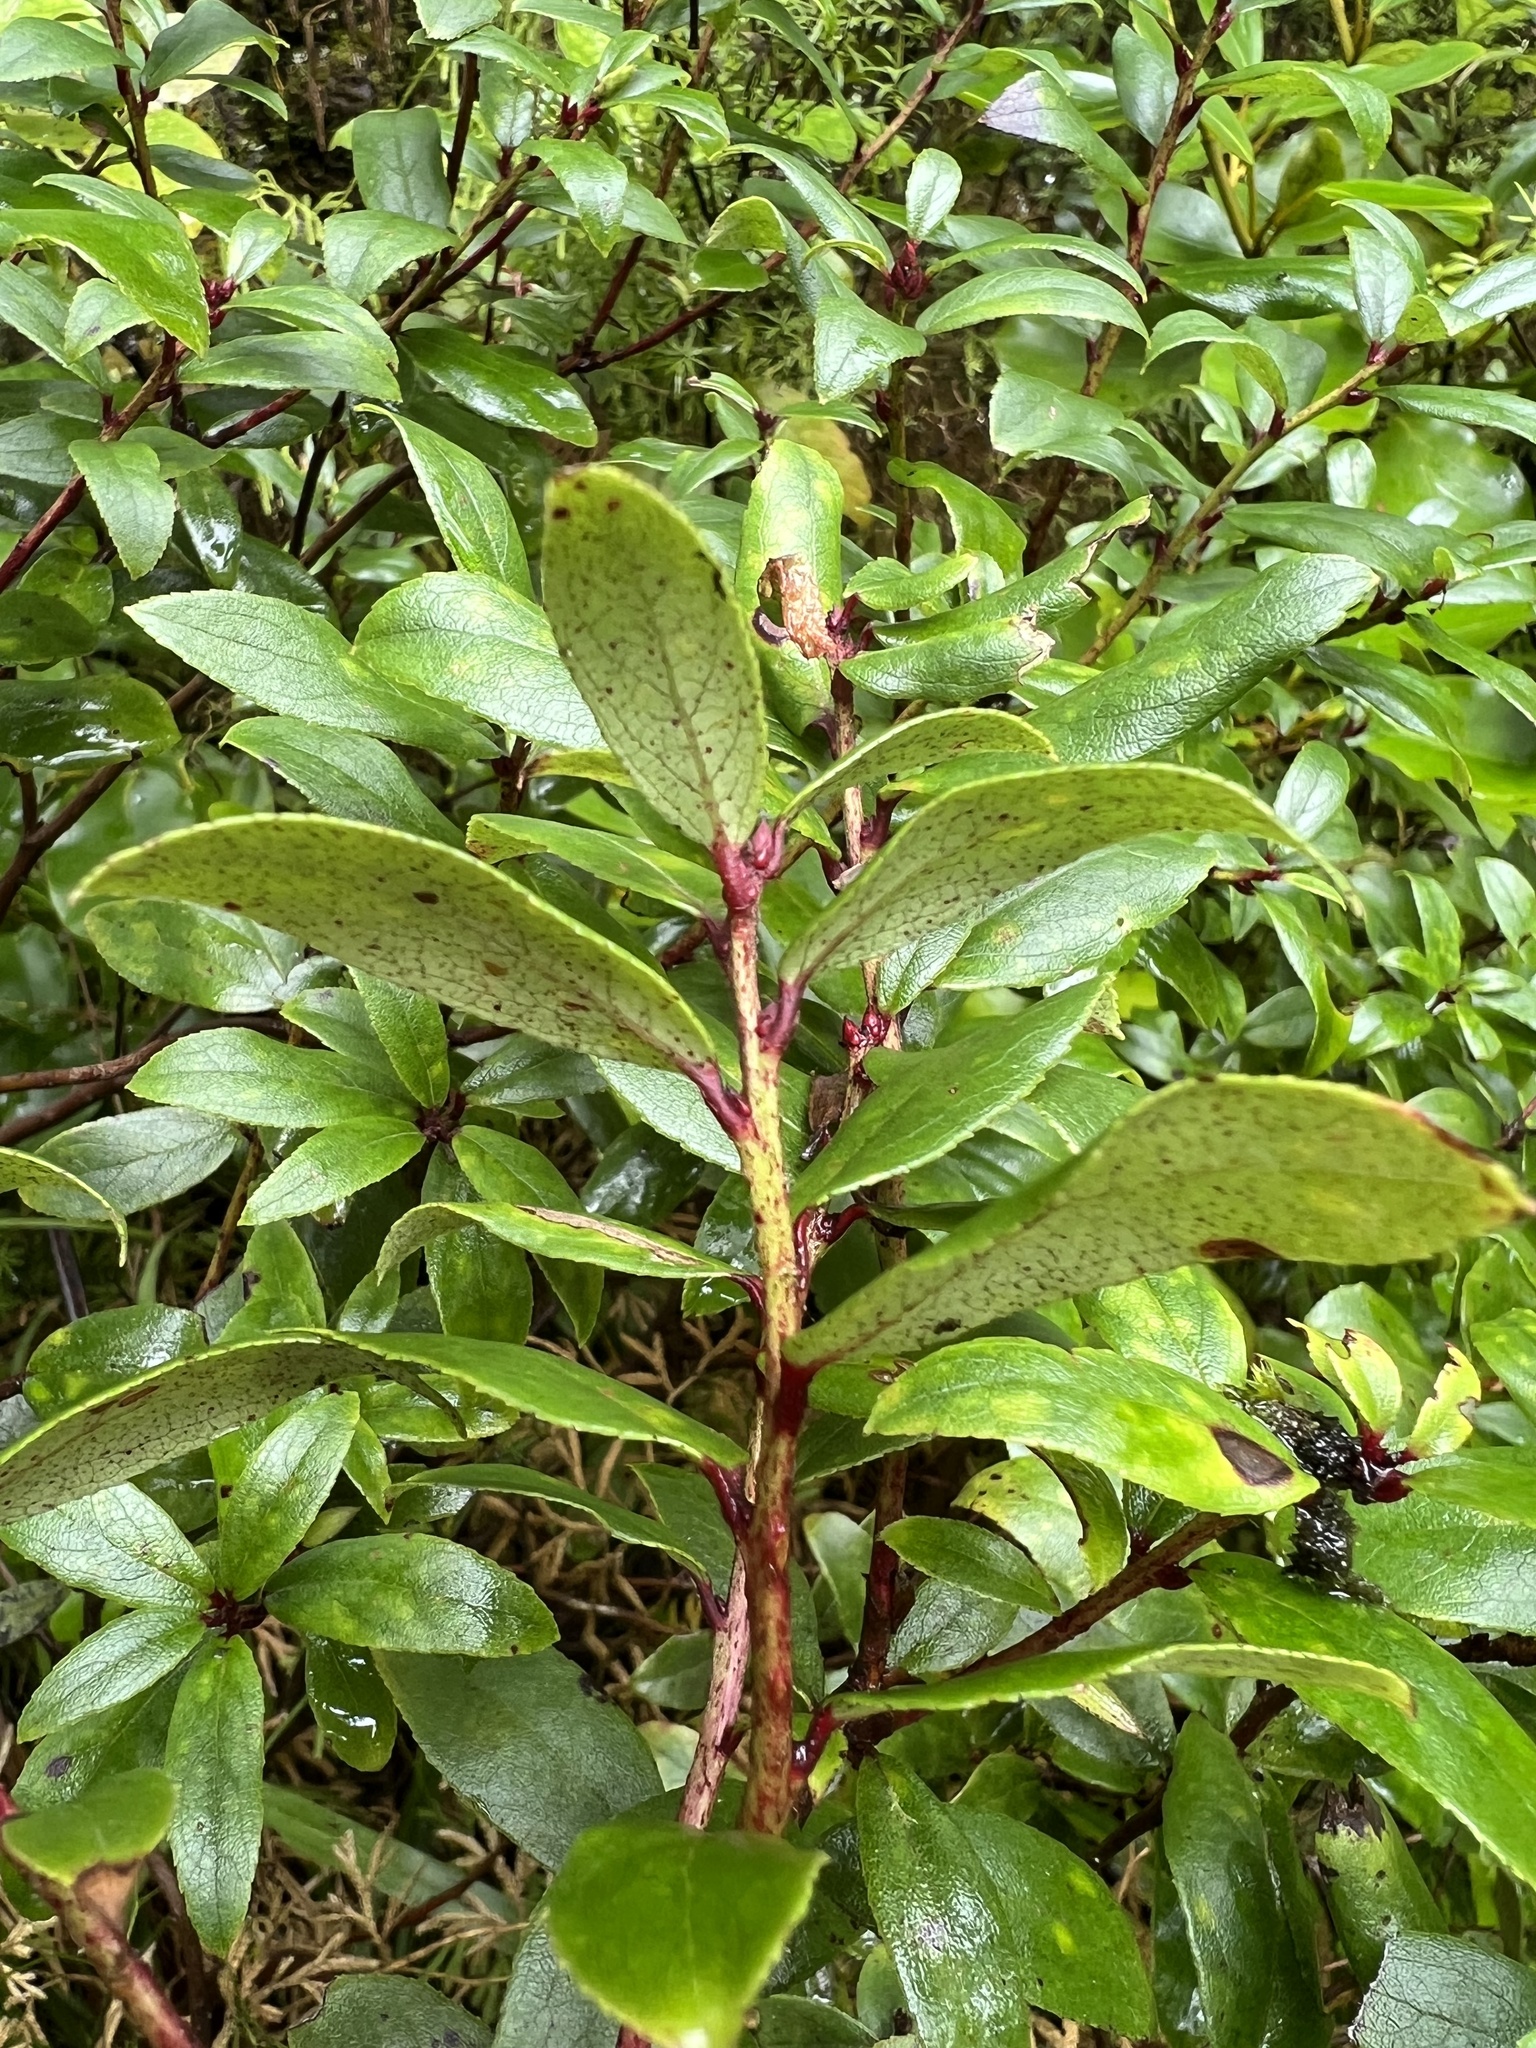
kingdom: Plantae
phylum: Tracheophyta
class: Magnoliopsida
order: Ericales
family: Ericaceae
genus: Gaultheria
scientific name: Gaultheria paniculata
